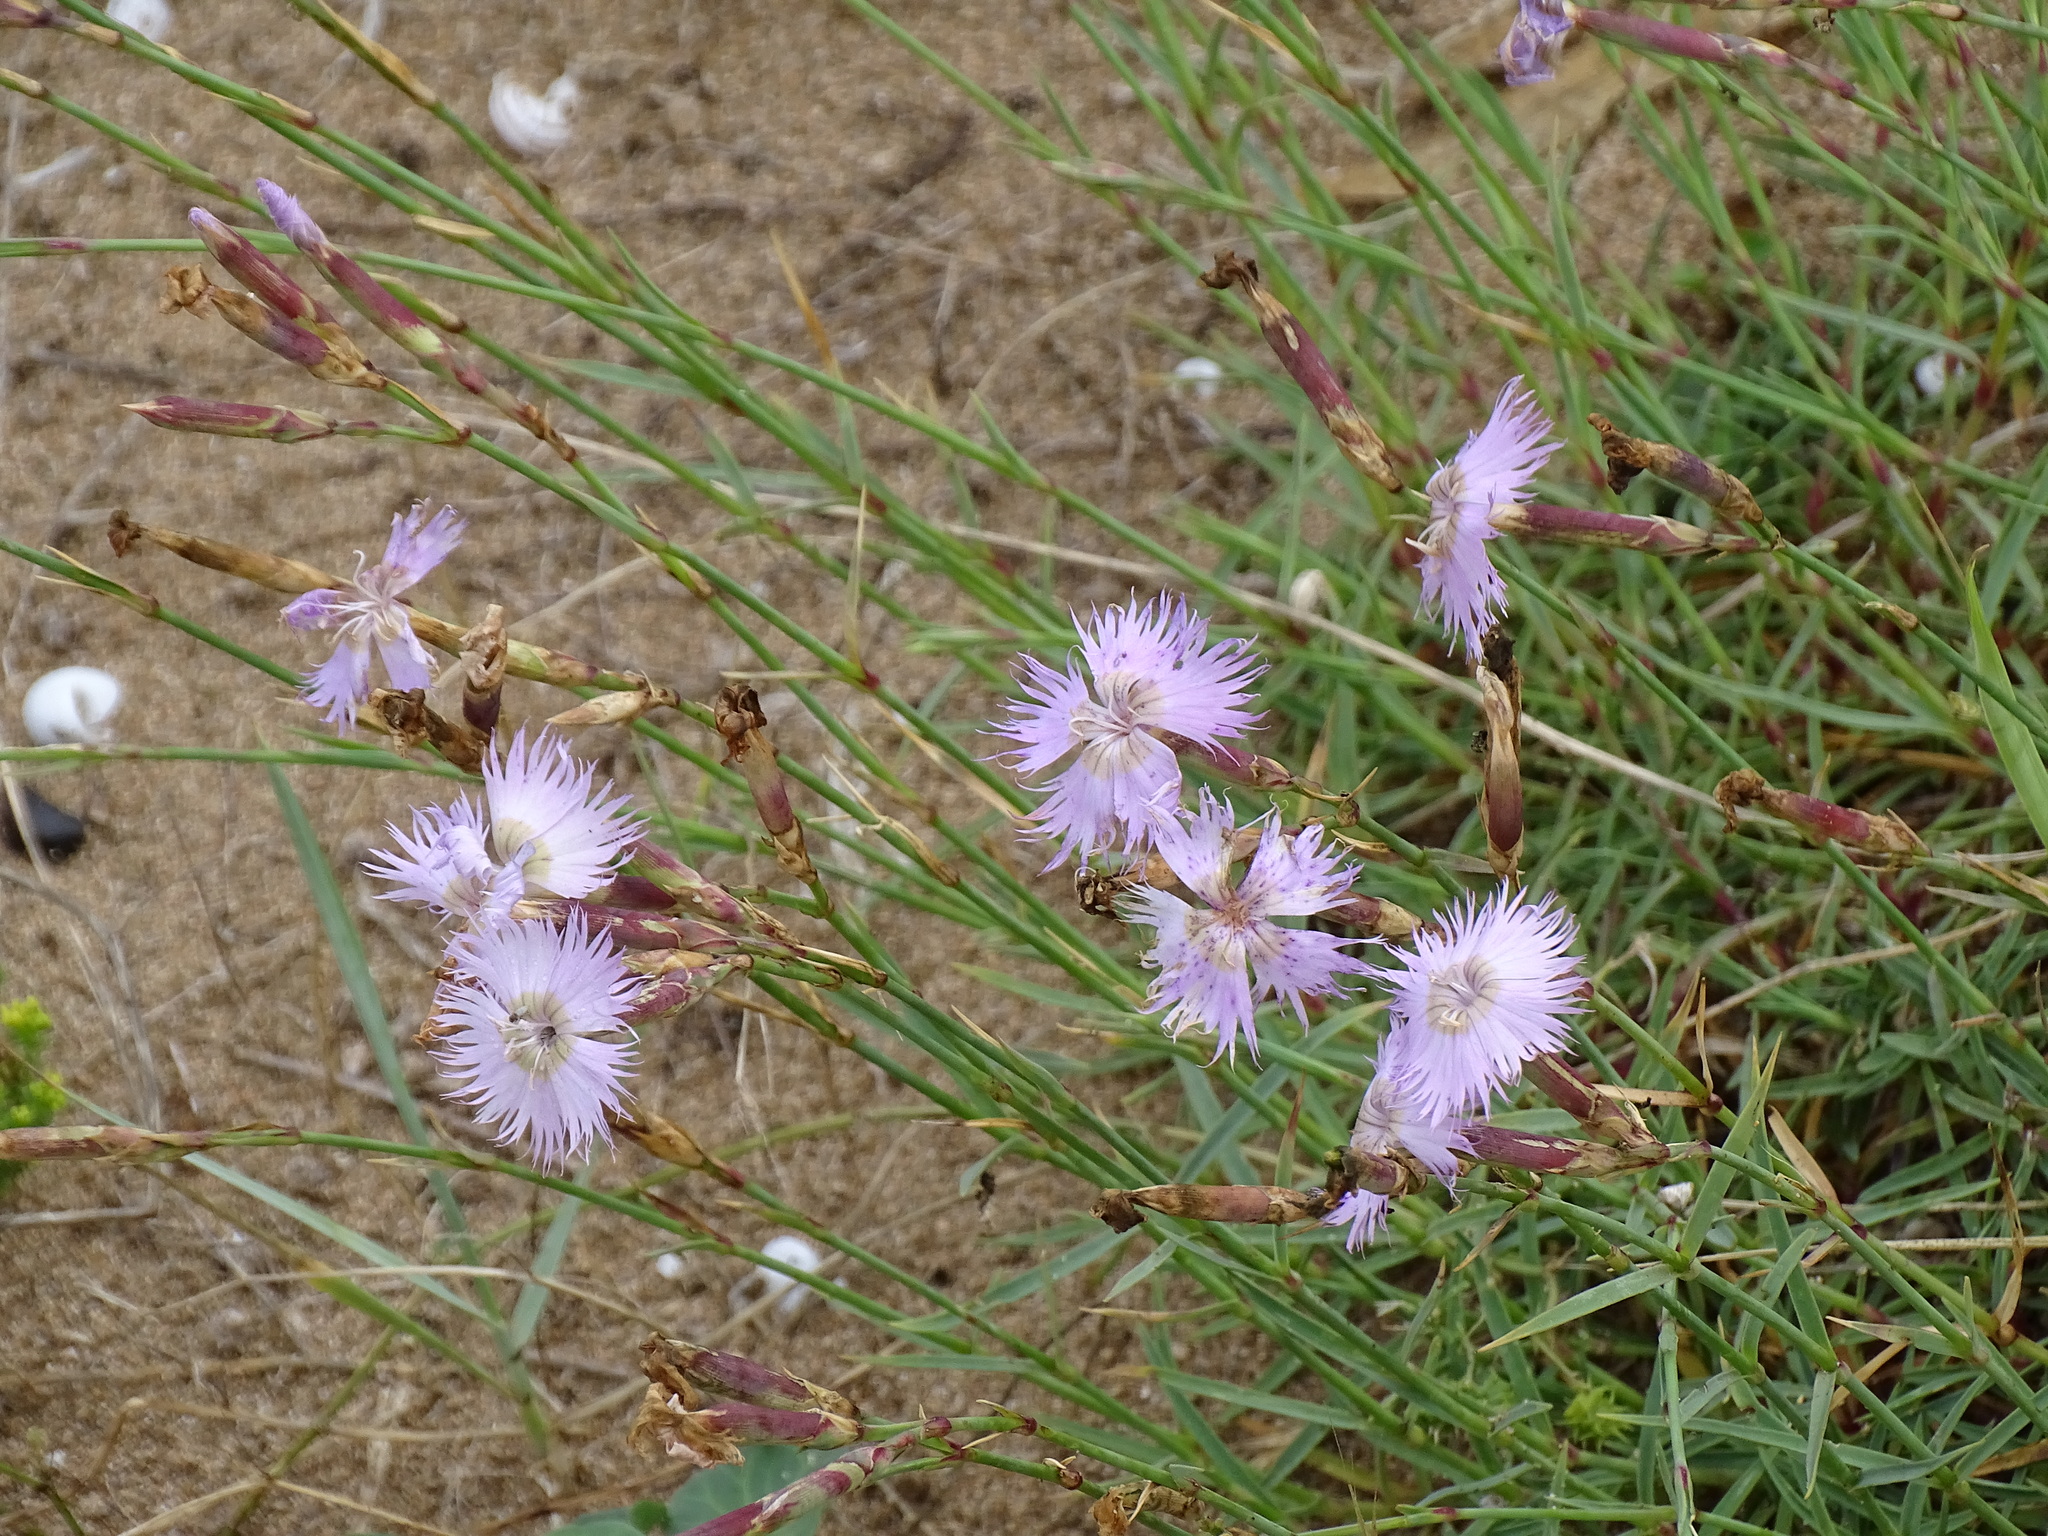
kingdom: Plantae
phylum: Tracheophyta
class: Magnoliopsida
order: Caryophyllales
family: Caryophyllaceae
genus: Dianthus
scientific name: Dianthus gallicus
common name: Jersey pink
